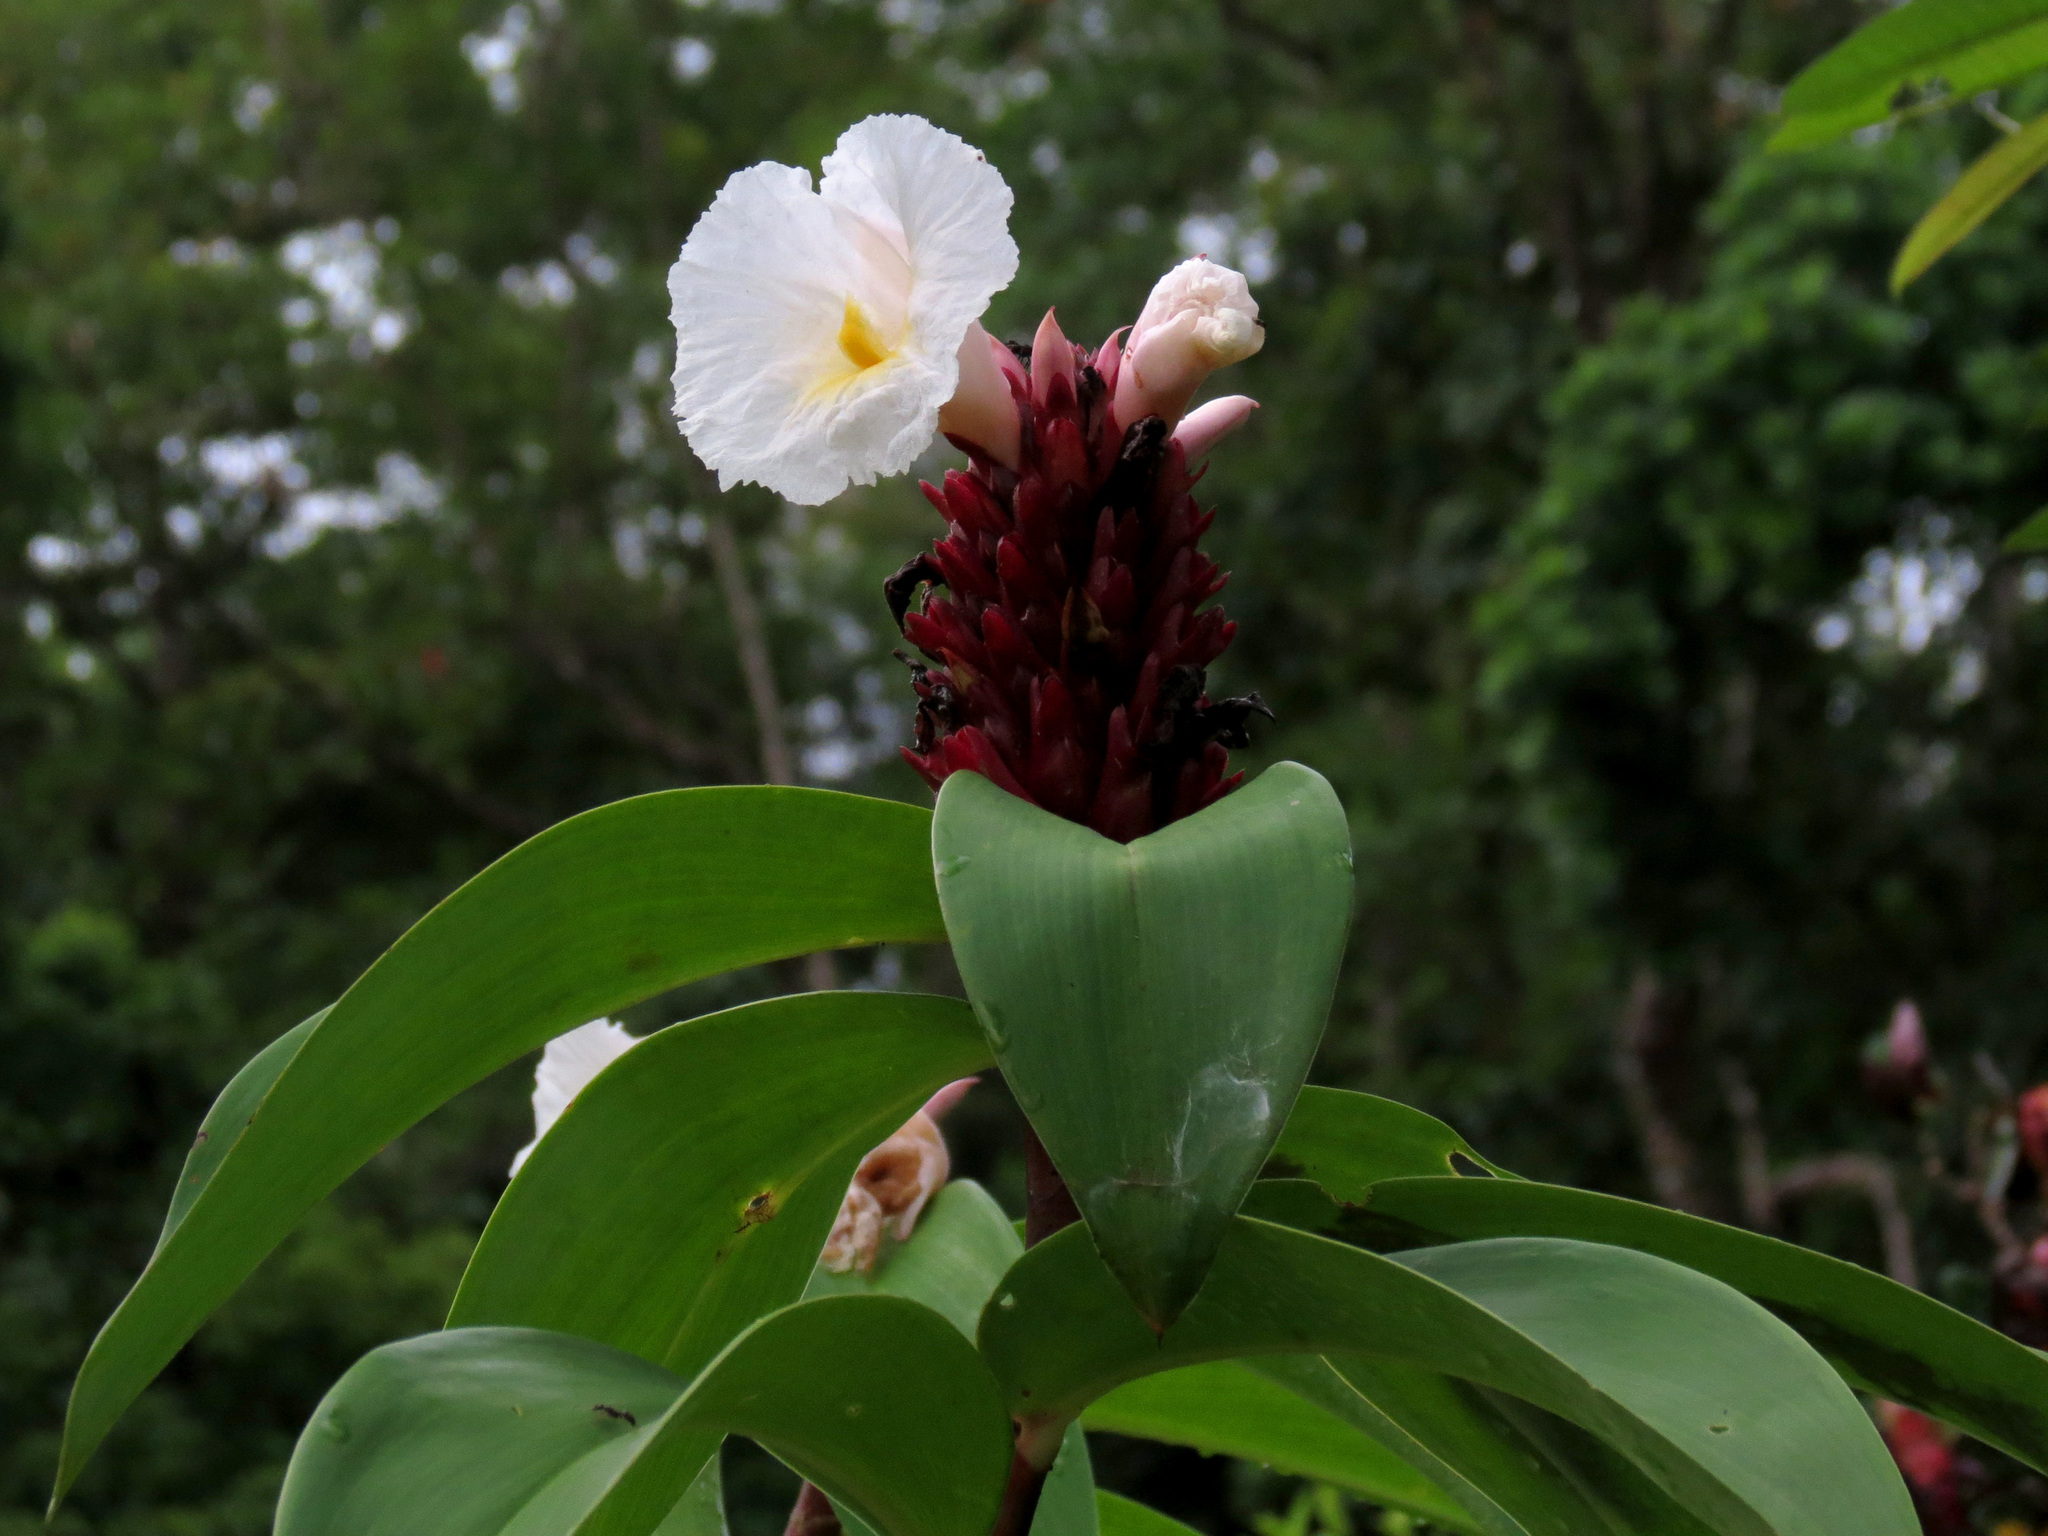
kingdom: Plantae
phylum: Tracheophyta
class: Liliopsida
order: Zingiberales
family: Costaceae
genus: Hellenia
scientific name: Hellenia speciosa
